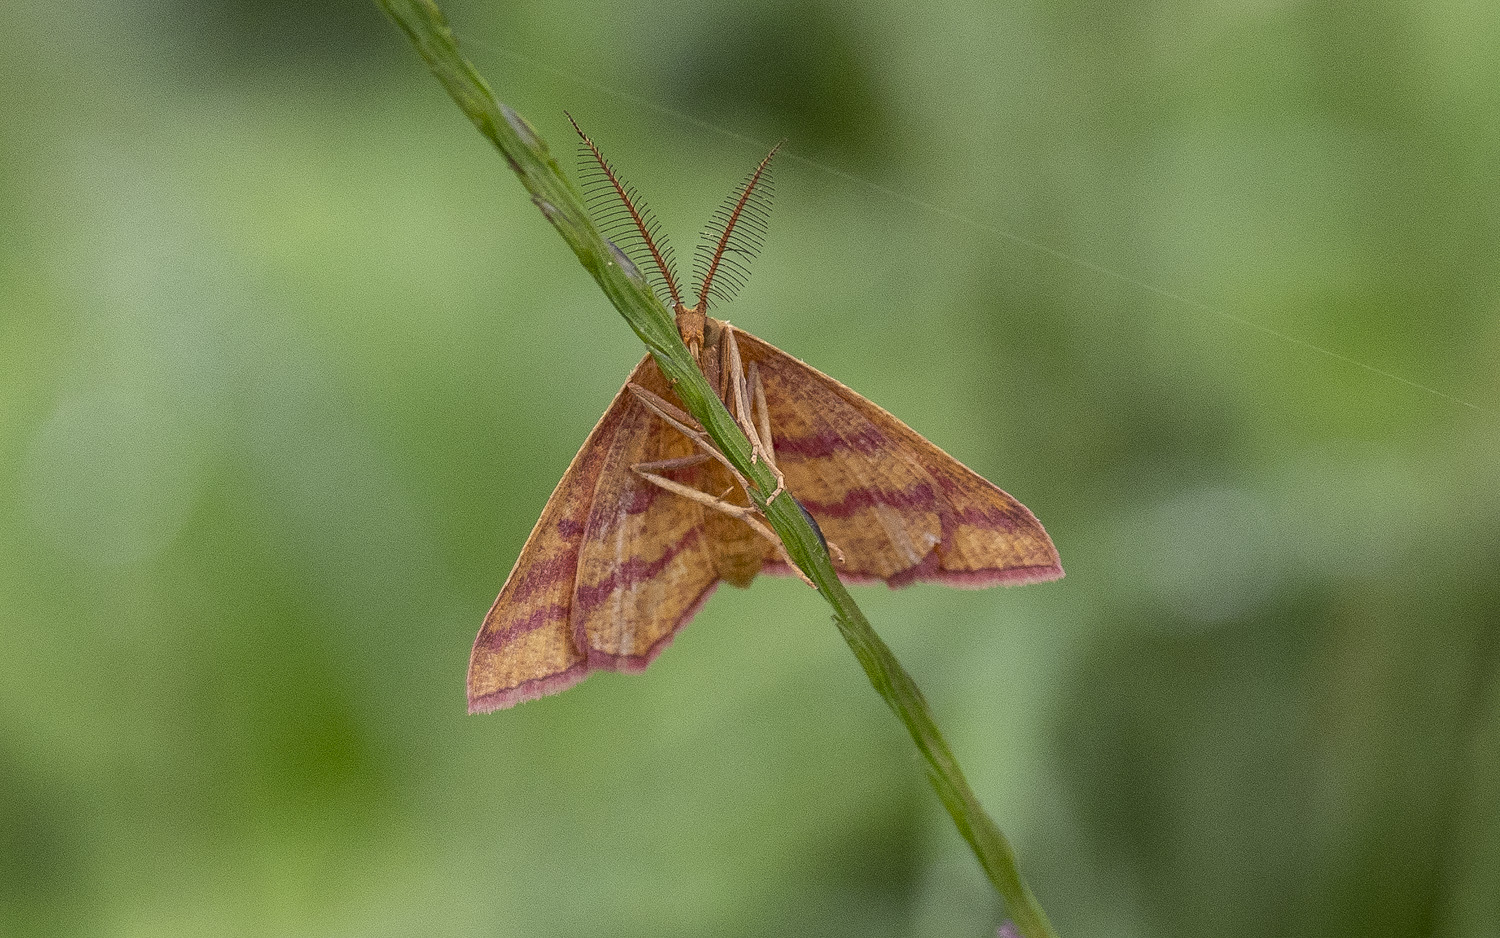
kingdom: Animalia
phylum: Arthropoda
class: Insecta
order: Lepidoptera
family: Geometridae
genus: Haematopis
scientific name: Haematopis grataria
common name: Chickweed geometer
